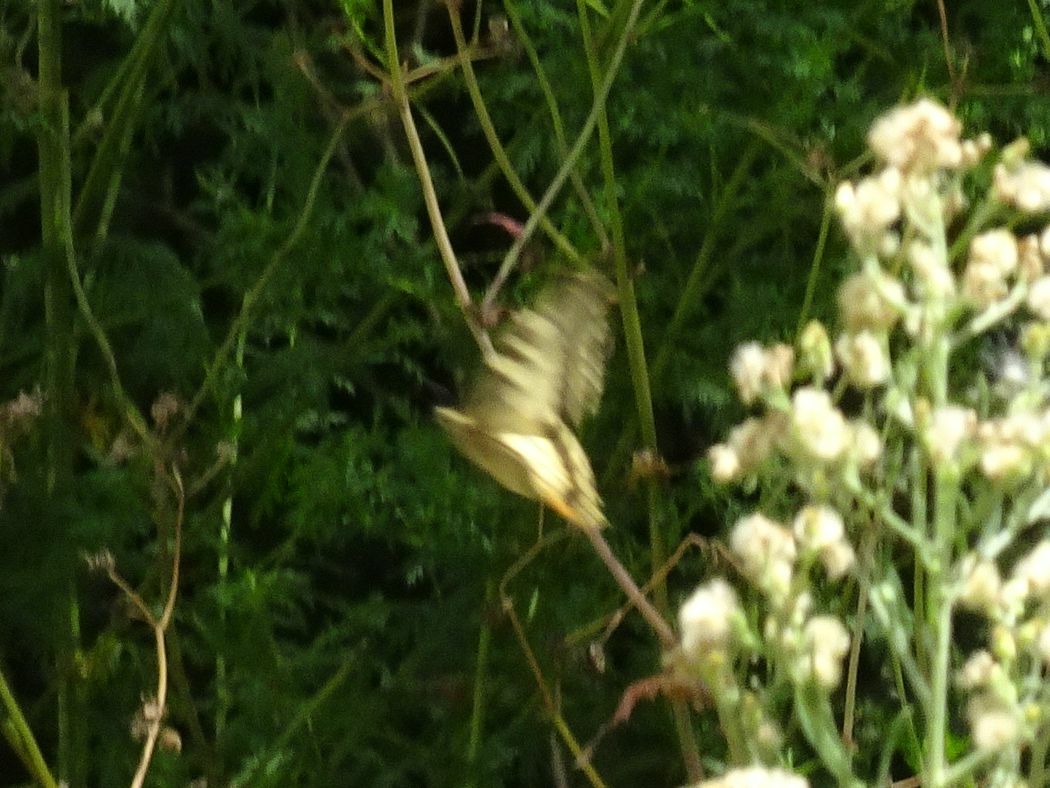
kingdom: Animalia
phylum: Arthropoda
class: Insecta
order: Lepidoptera
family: Papilionidae
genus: Papilio
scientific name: Papilio machaon
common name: Swallowtail
